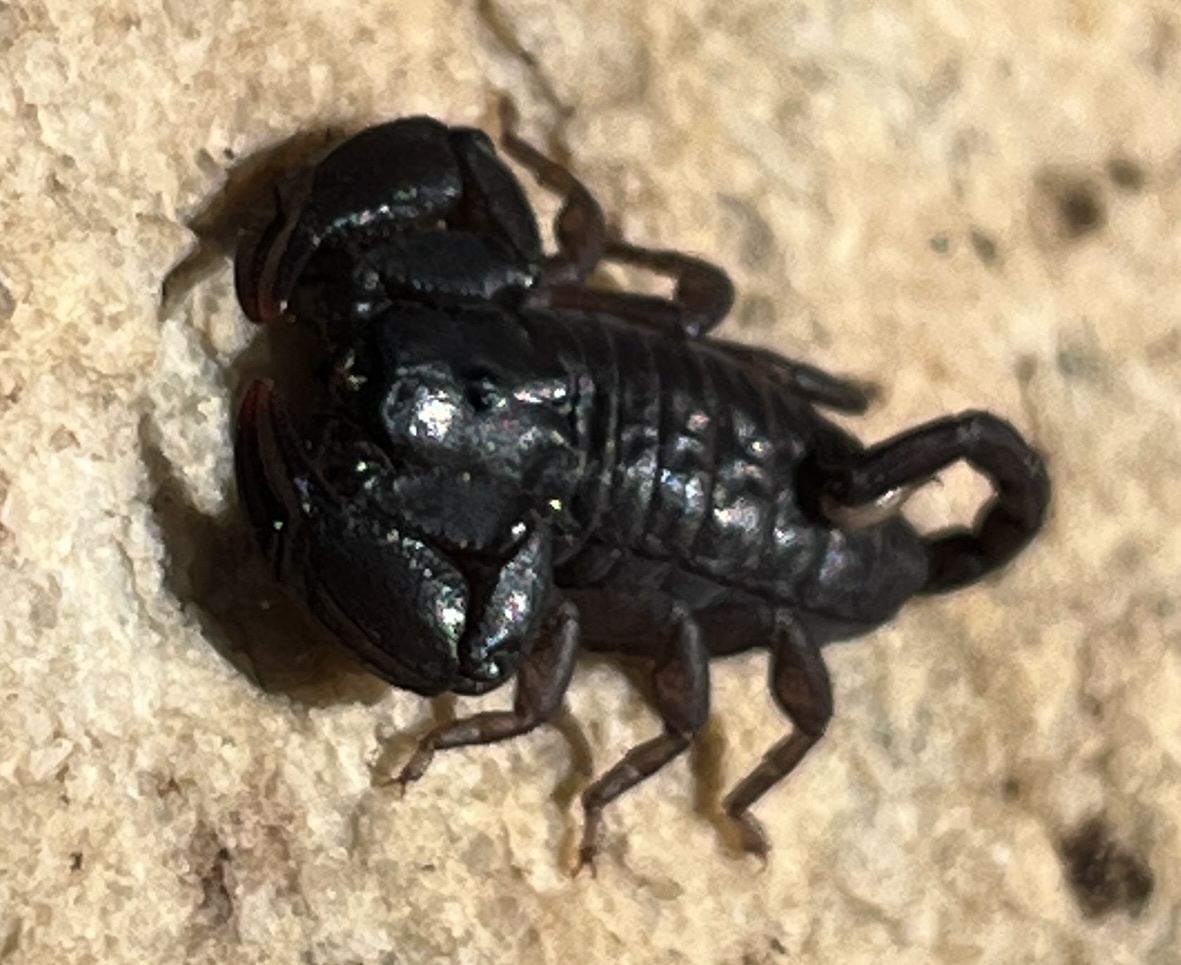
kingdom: Animalia
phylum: Arthropoda
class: Arachnida
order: Scorpiones
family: Hormuridae
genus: Opisthacanthus
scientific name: Opisthacanthus capensis
